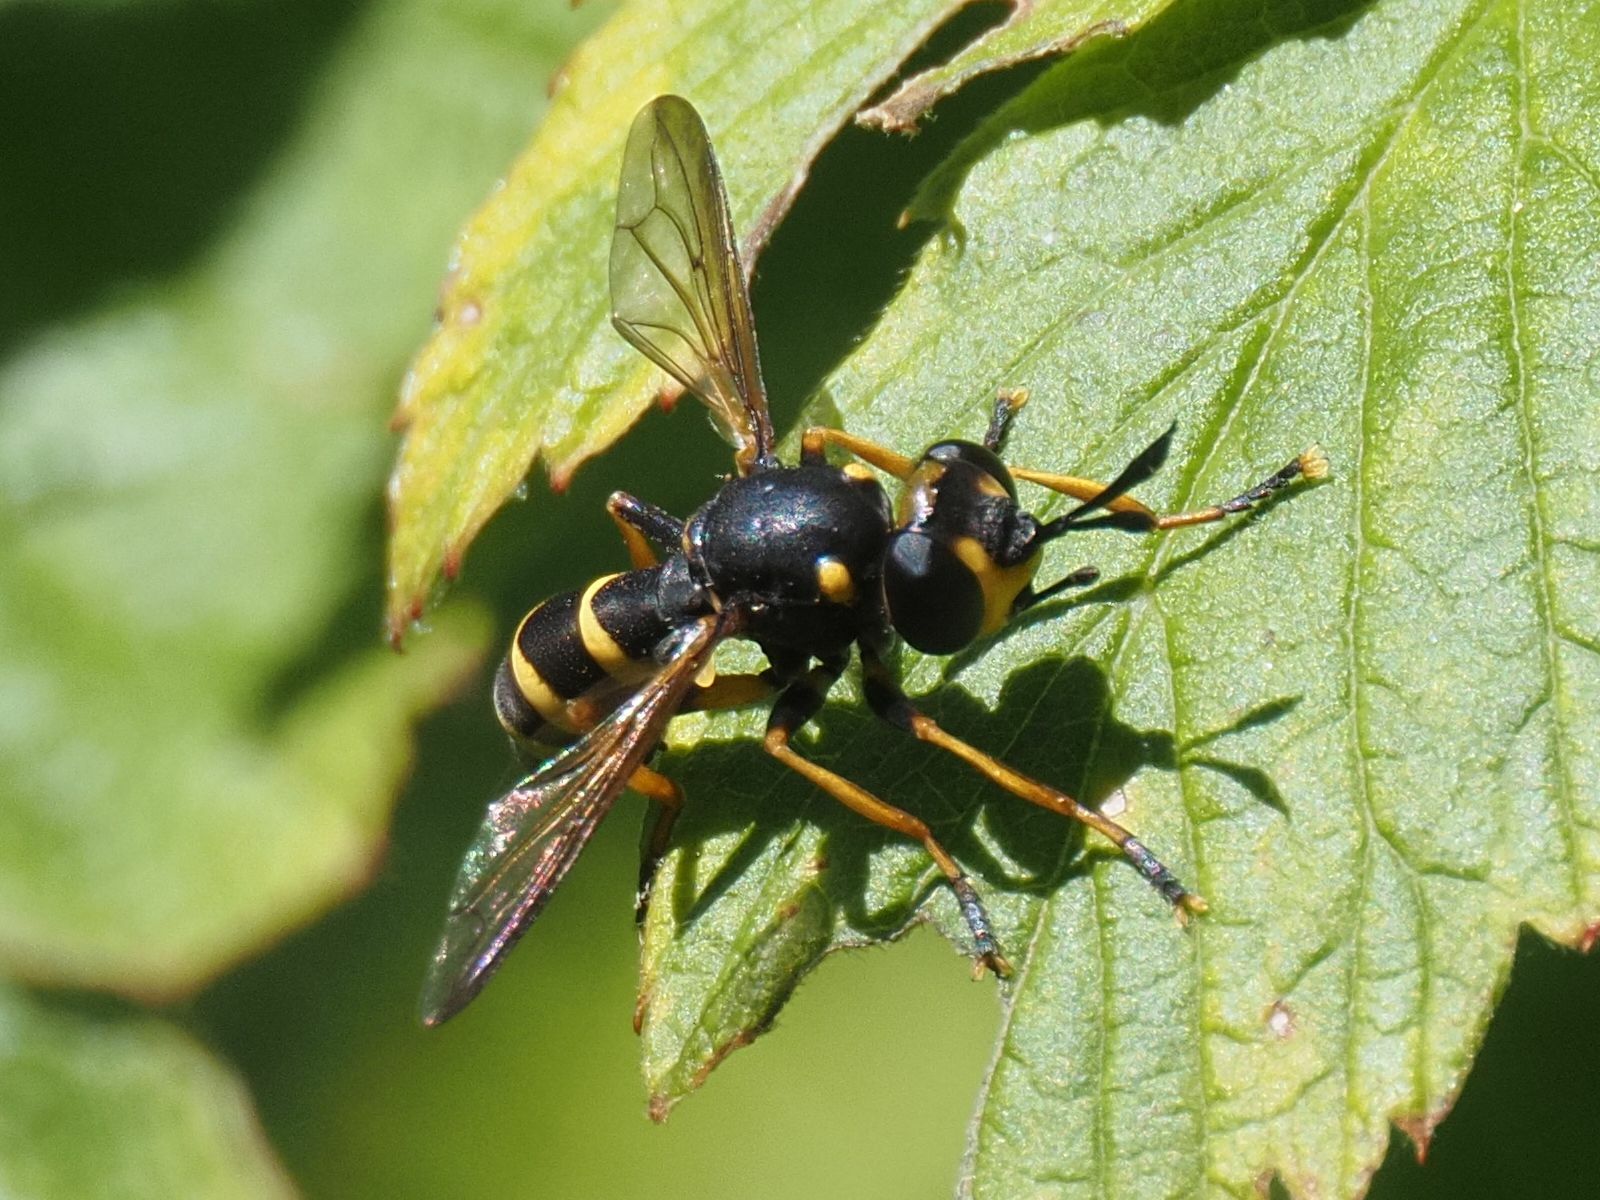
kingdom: Animalia
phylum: Arthropoda
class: Insecta
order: Diptera
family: Conopidae
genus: Conops
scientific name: Conops flavipes
